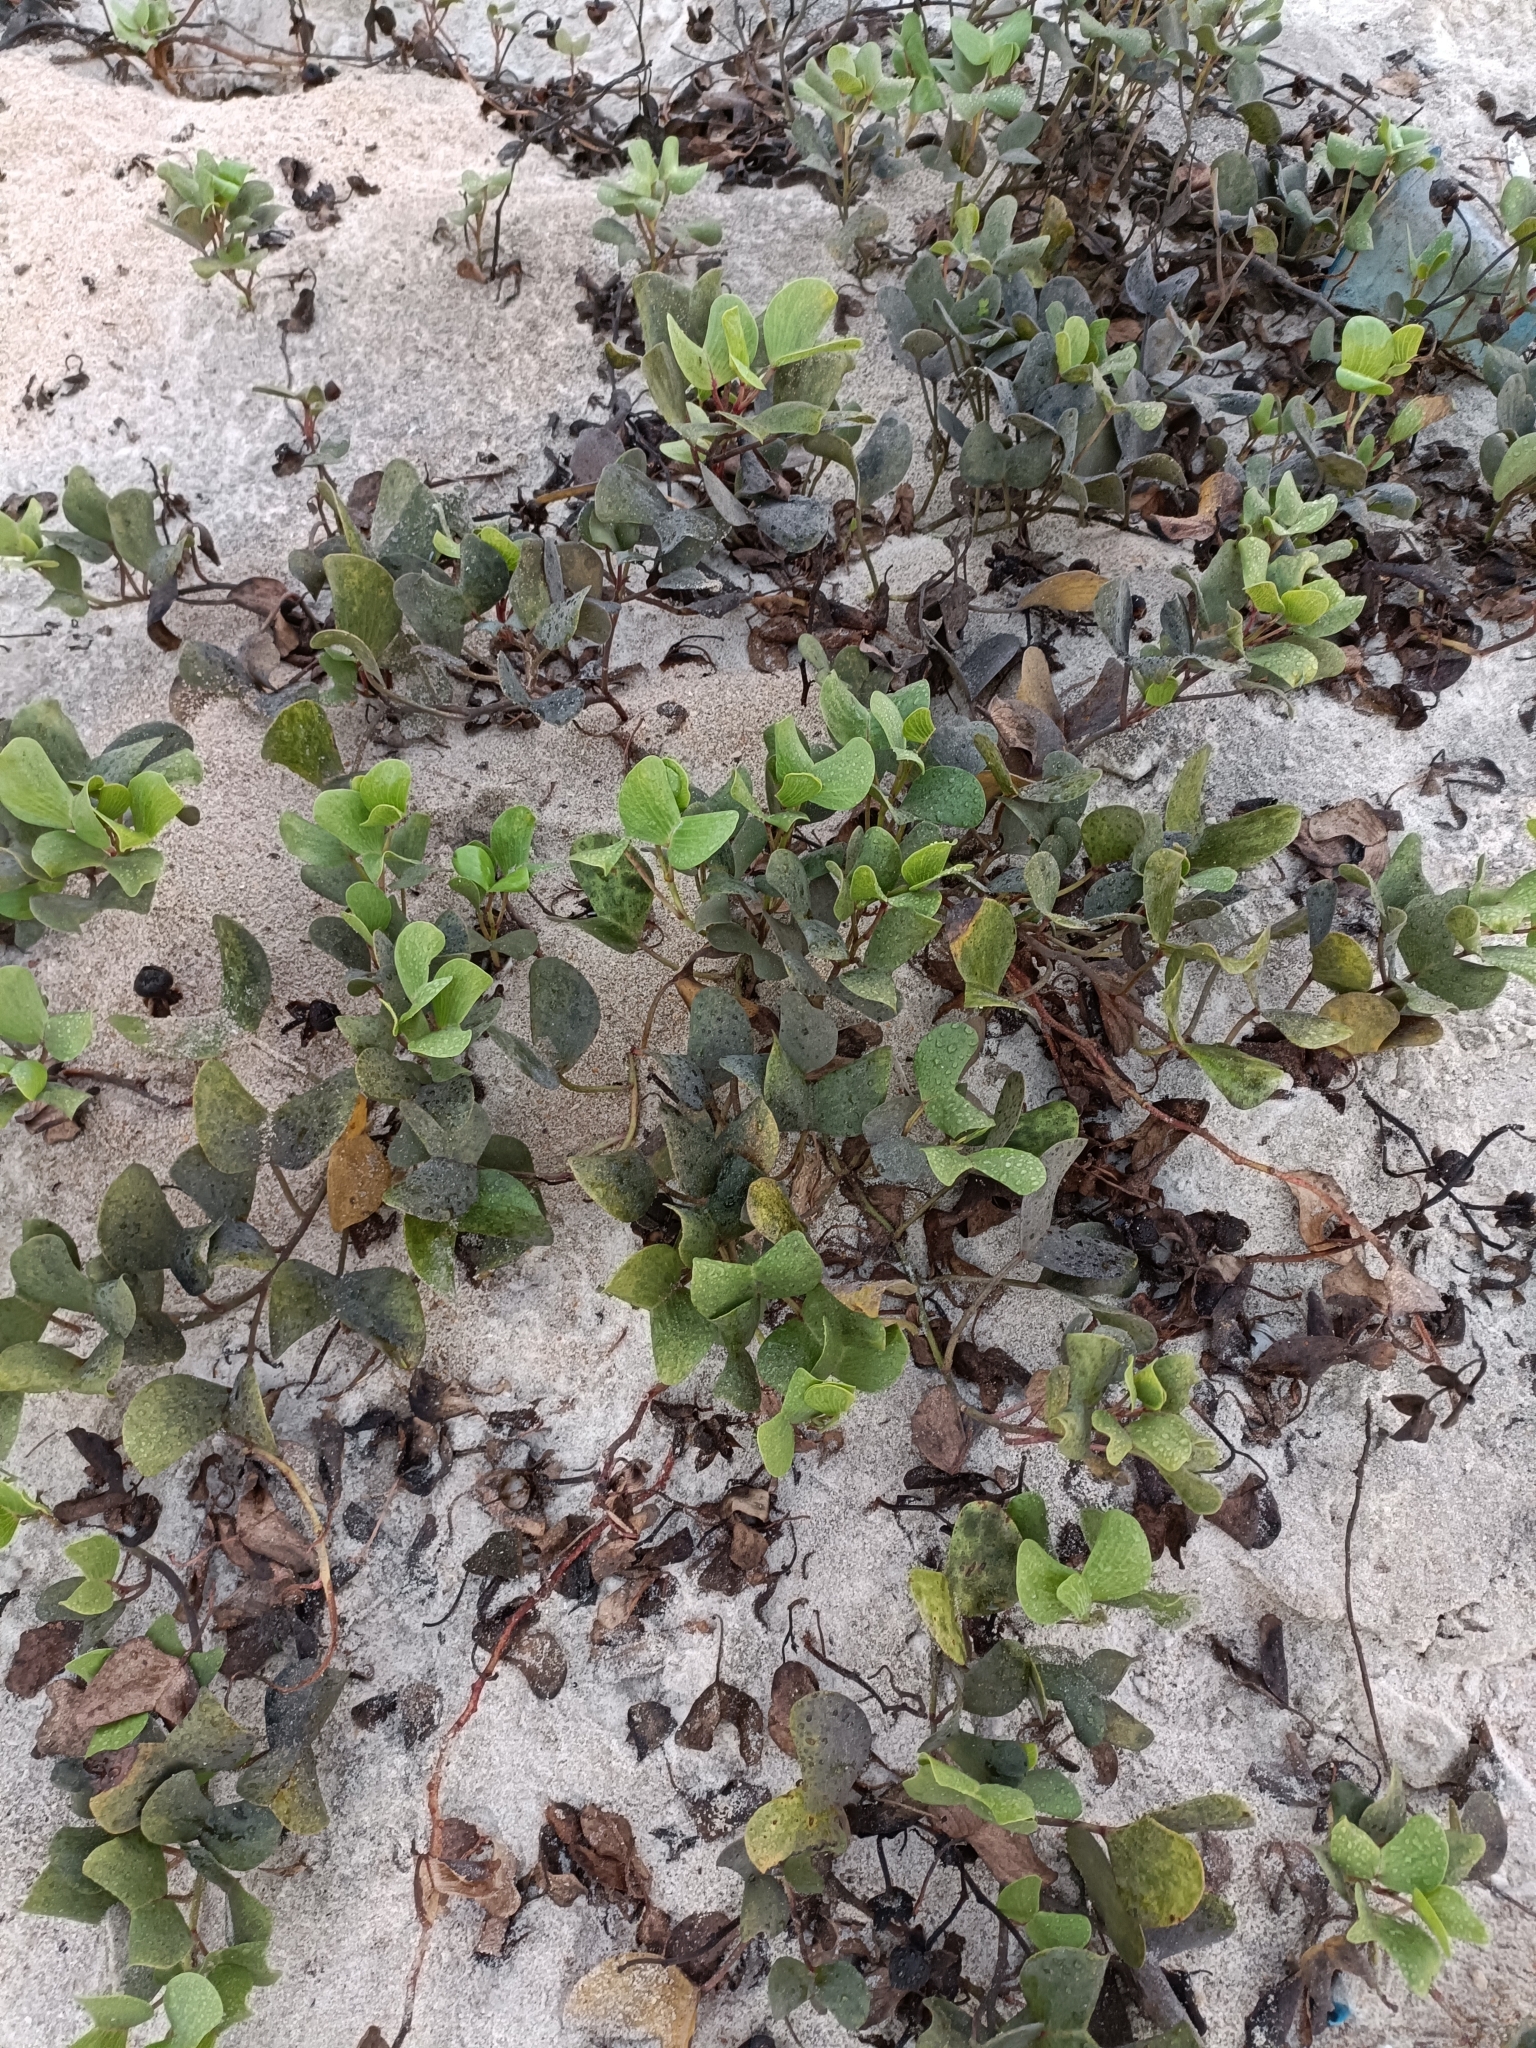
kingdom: Plantae
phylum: Tracheophyta
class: Magnoliopsida
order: Solanales
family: Convolvulaceae
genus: Ipomoea
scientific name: Ipomoea pes-caprae
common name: Beach morning glory
